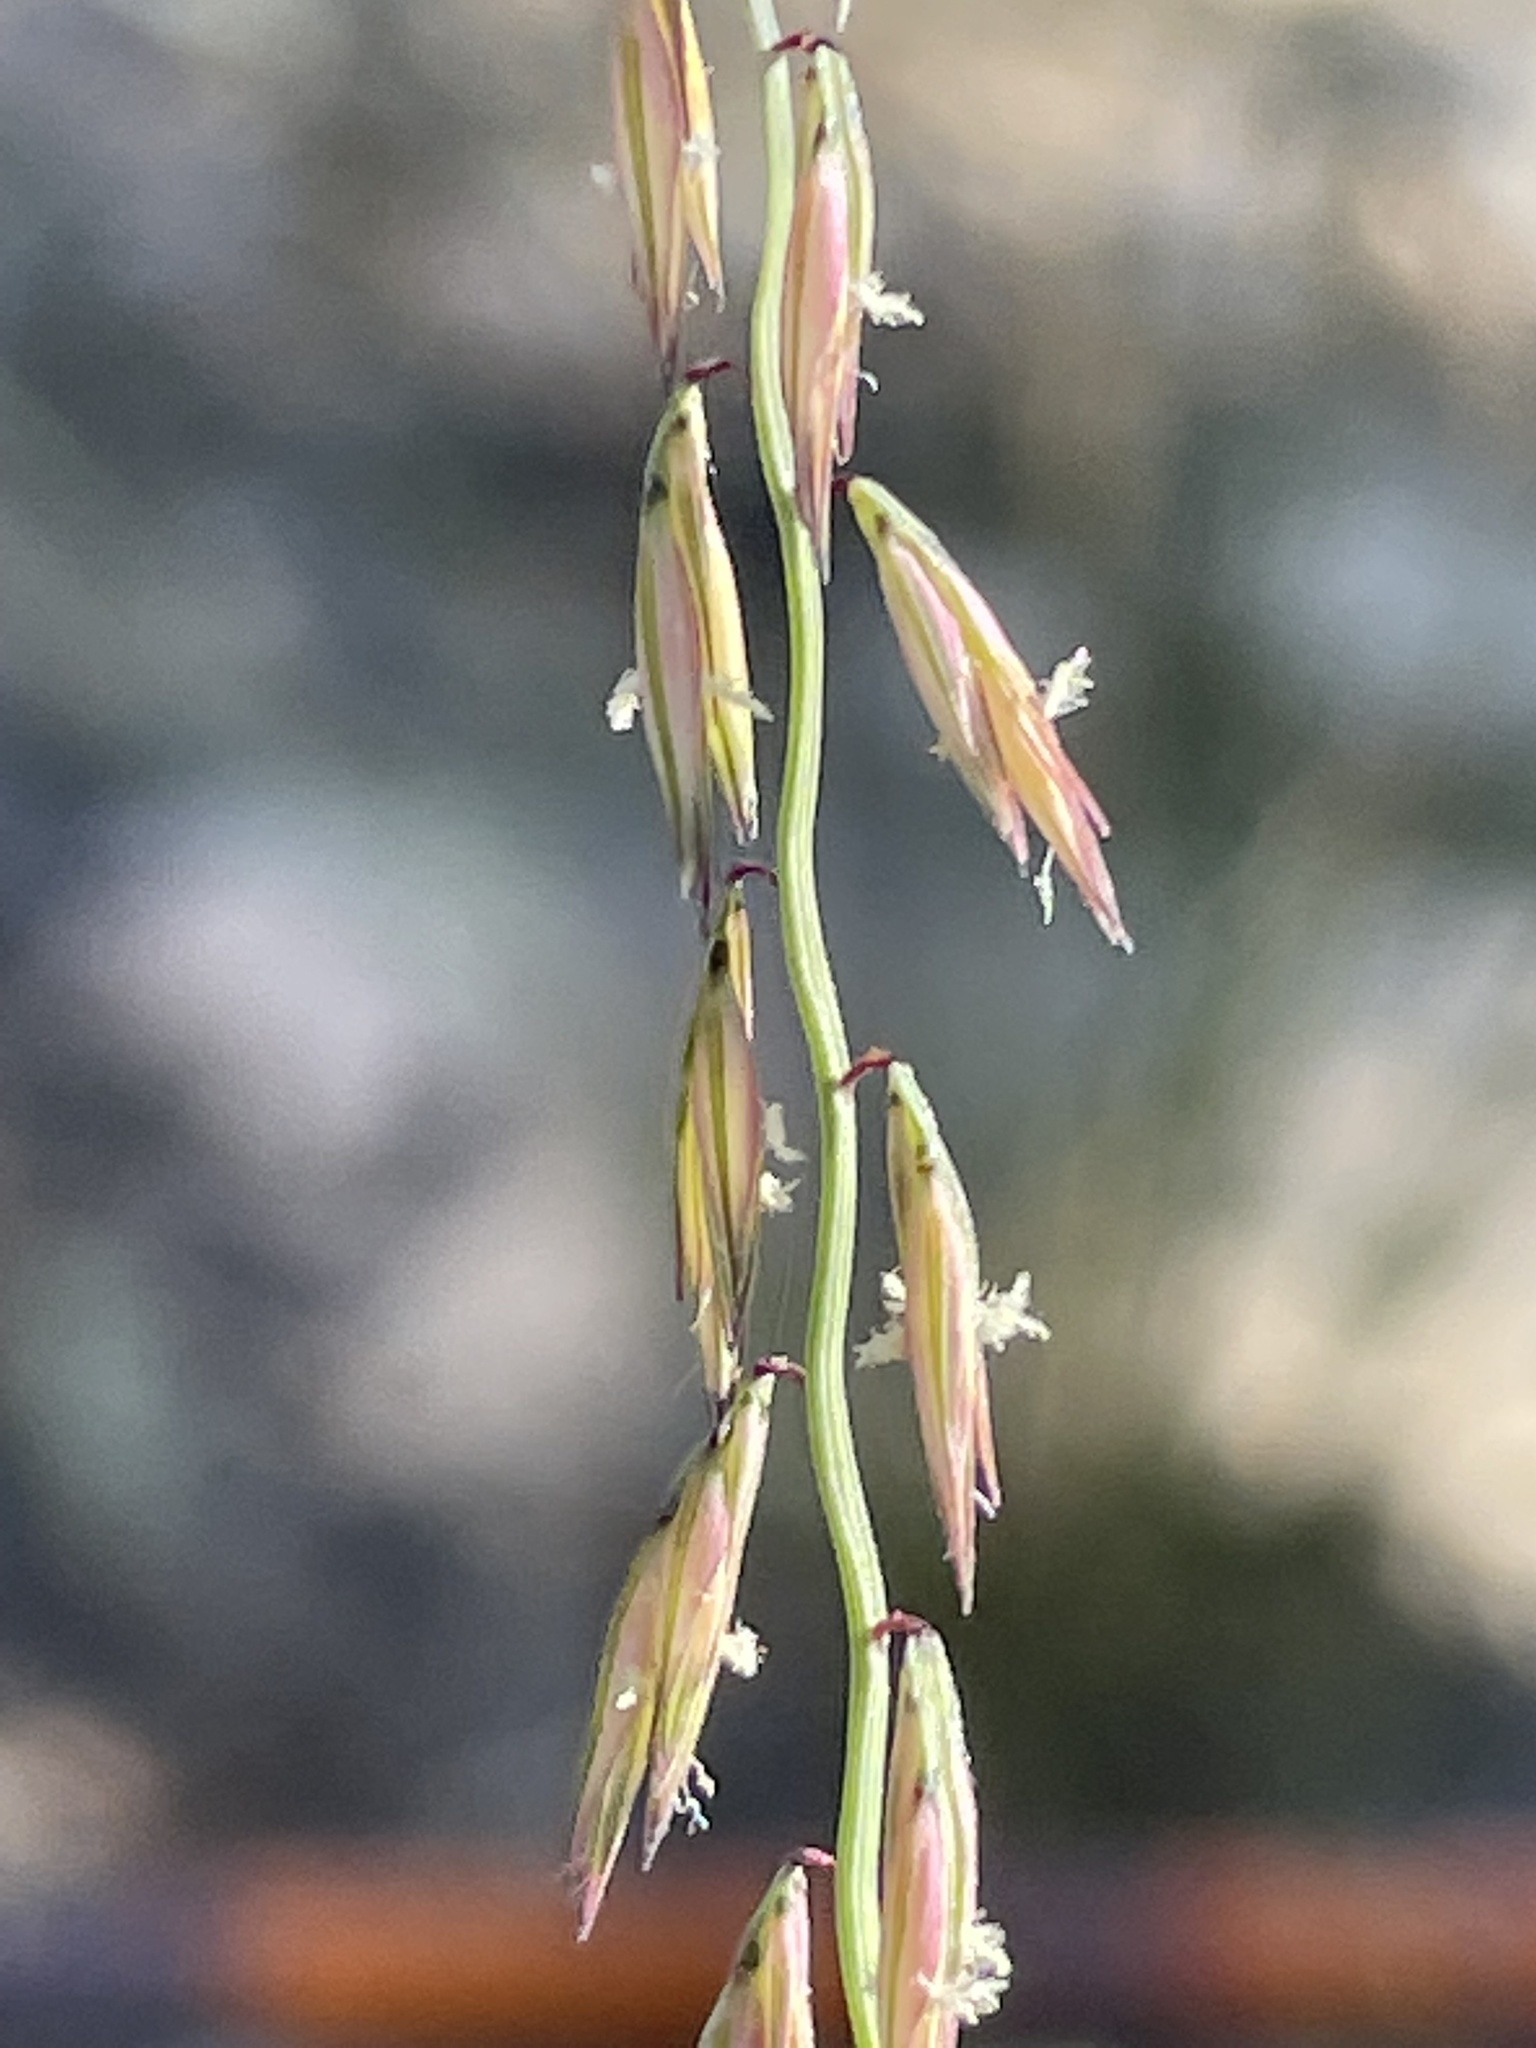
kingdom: Plantae
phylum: Tracheophyta
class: Liliopsida
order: Poales
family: Poaceae
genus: Bouteloua
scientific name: Bouteloua curtipendula
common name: Side-oats grama
